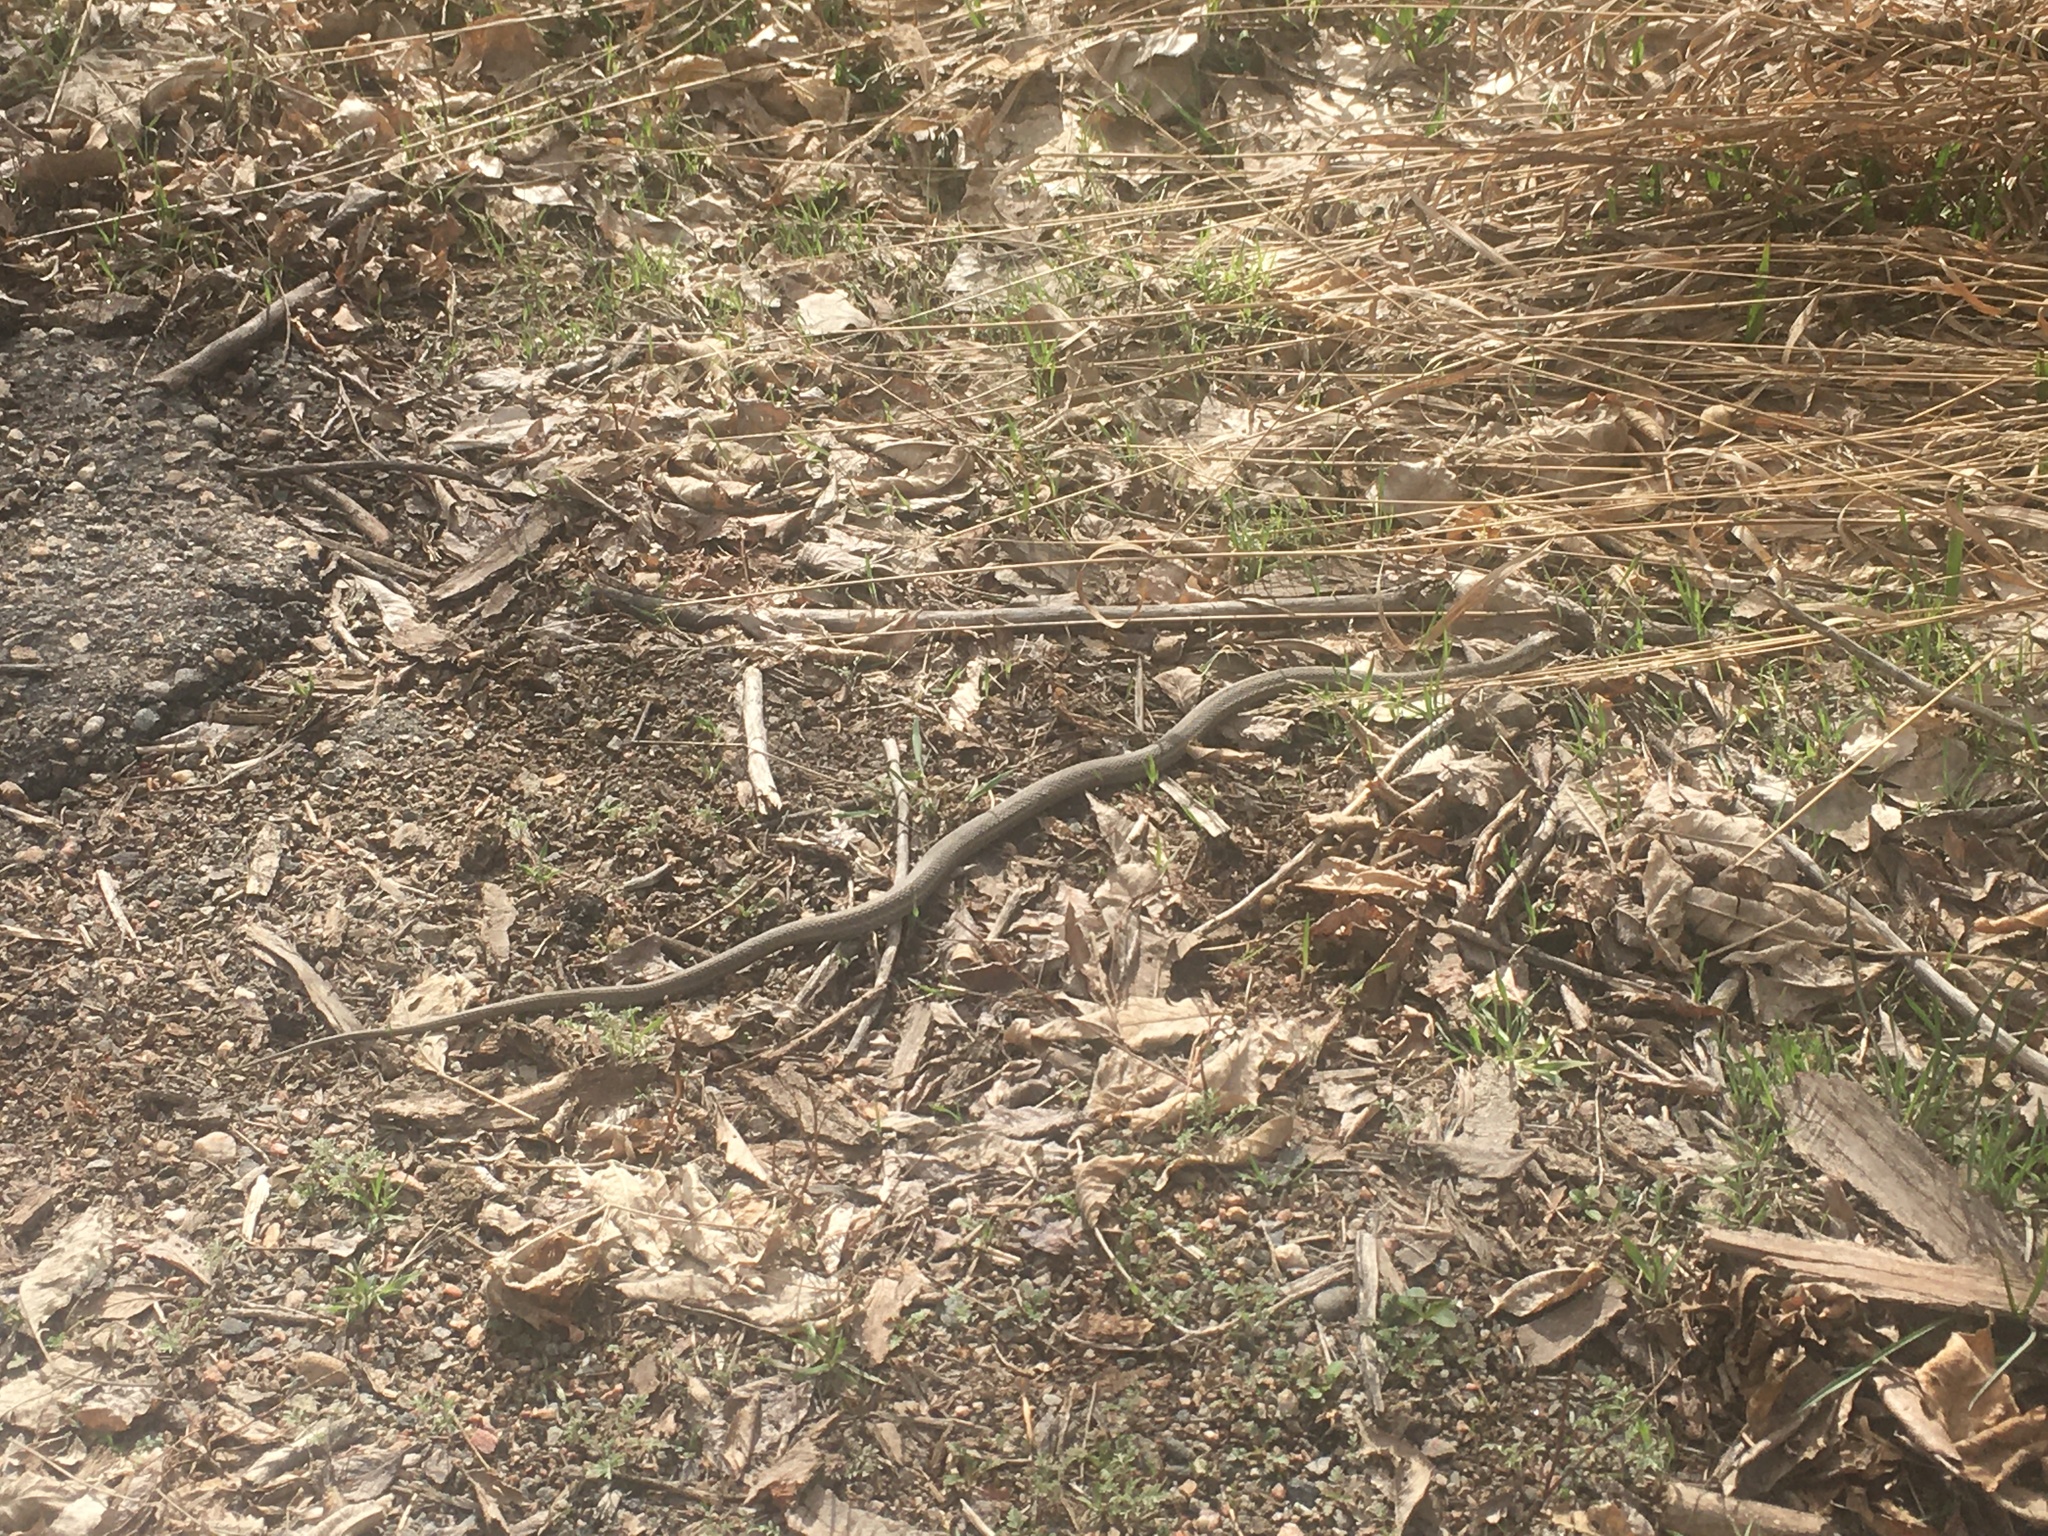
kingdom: Animalia
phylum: Chordata
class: Squamata
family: Colubridae
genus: Thamnophis
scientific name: Thamnophis elegans
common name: Western terrestrial garter snake
